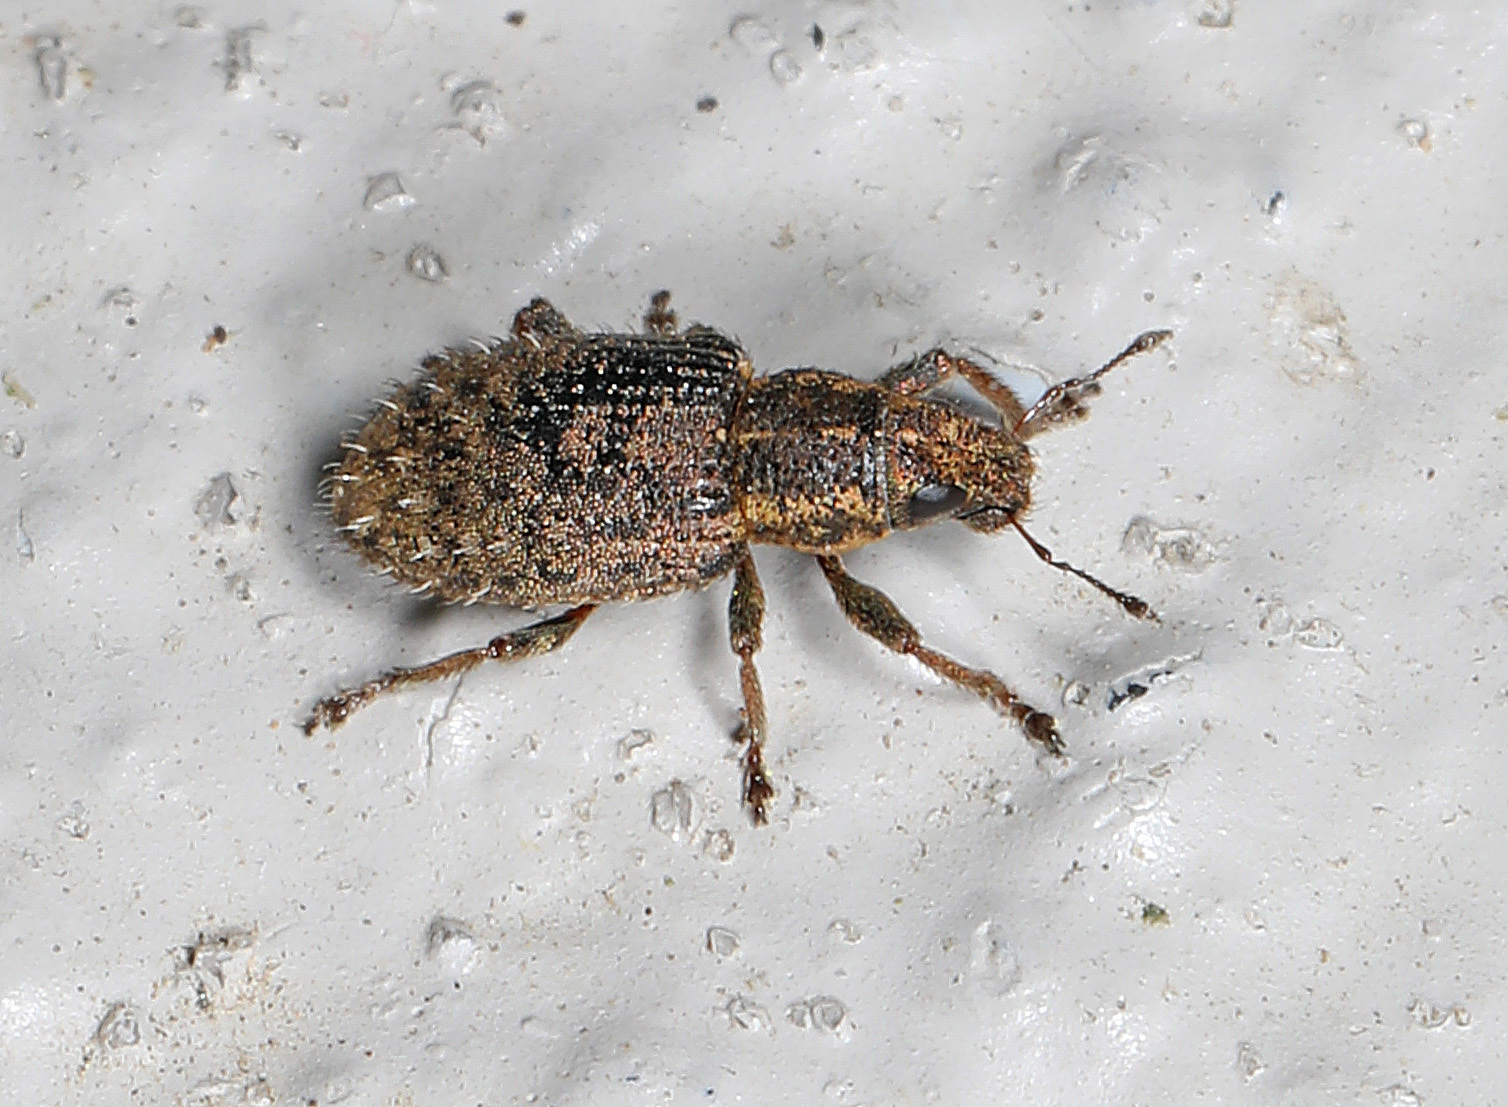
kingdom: Animalia
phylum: Arthropoda
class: Insecta
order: Coleoptera
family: Curculionidae
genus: Sitona
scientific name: Sitona hispidulus
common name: Clover weevil
